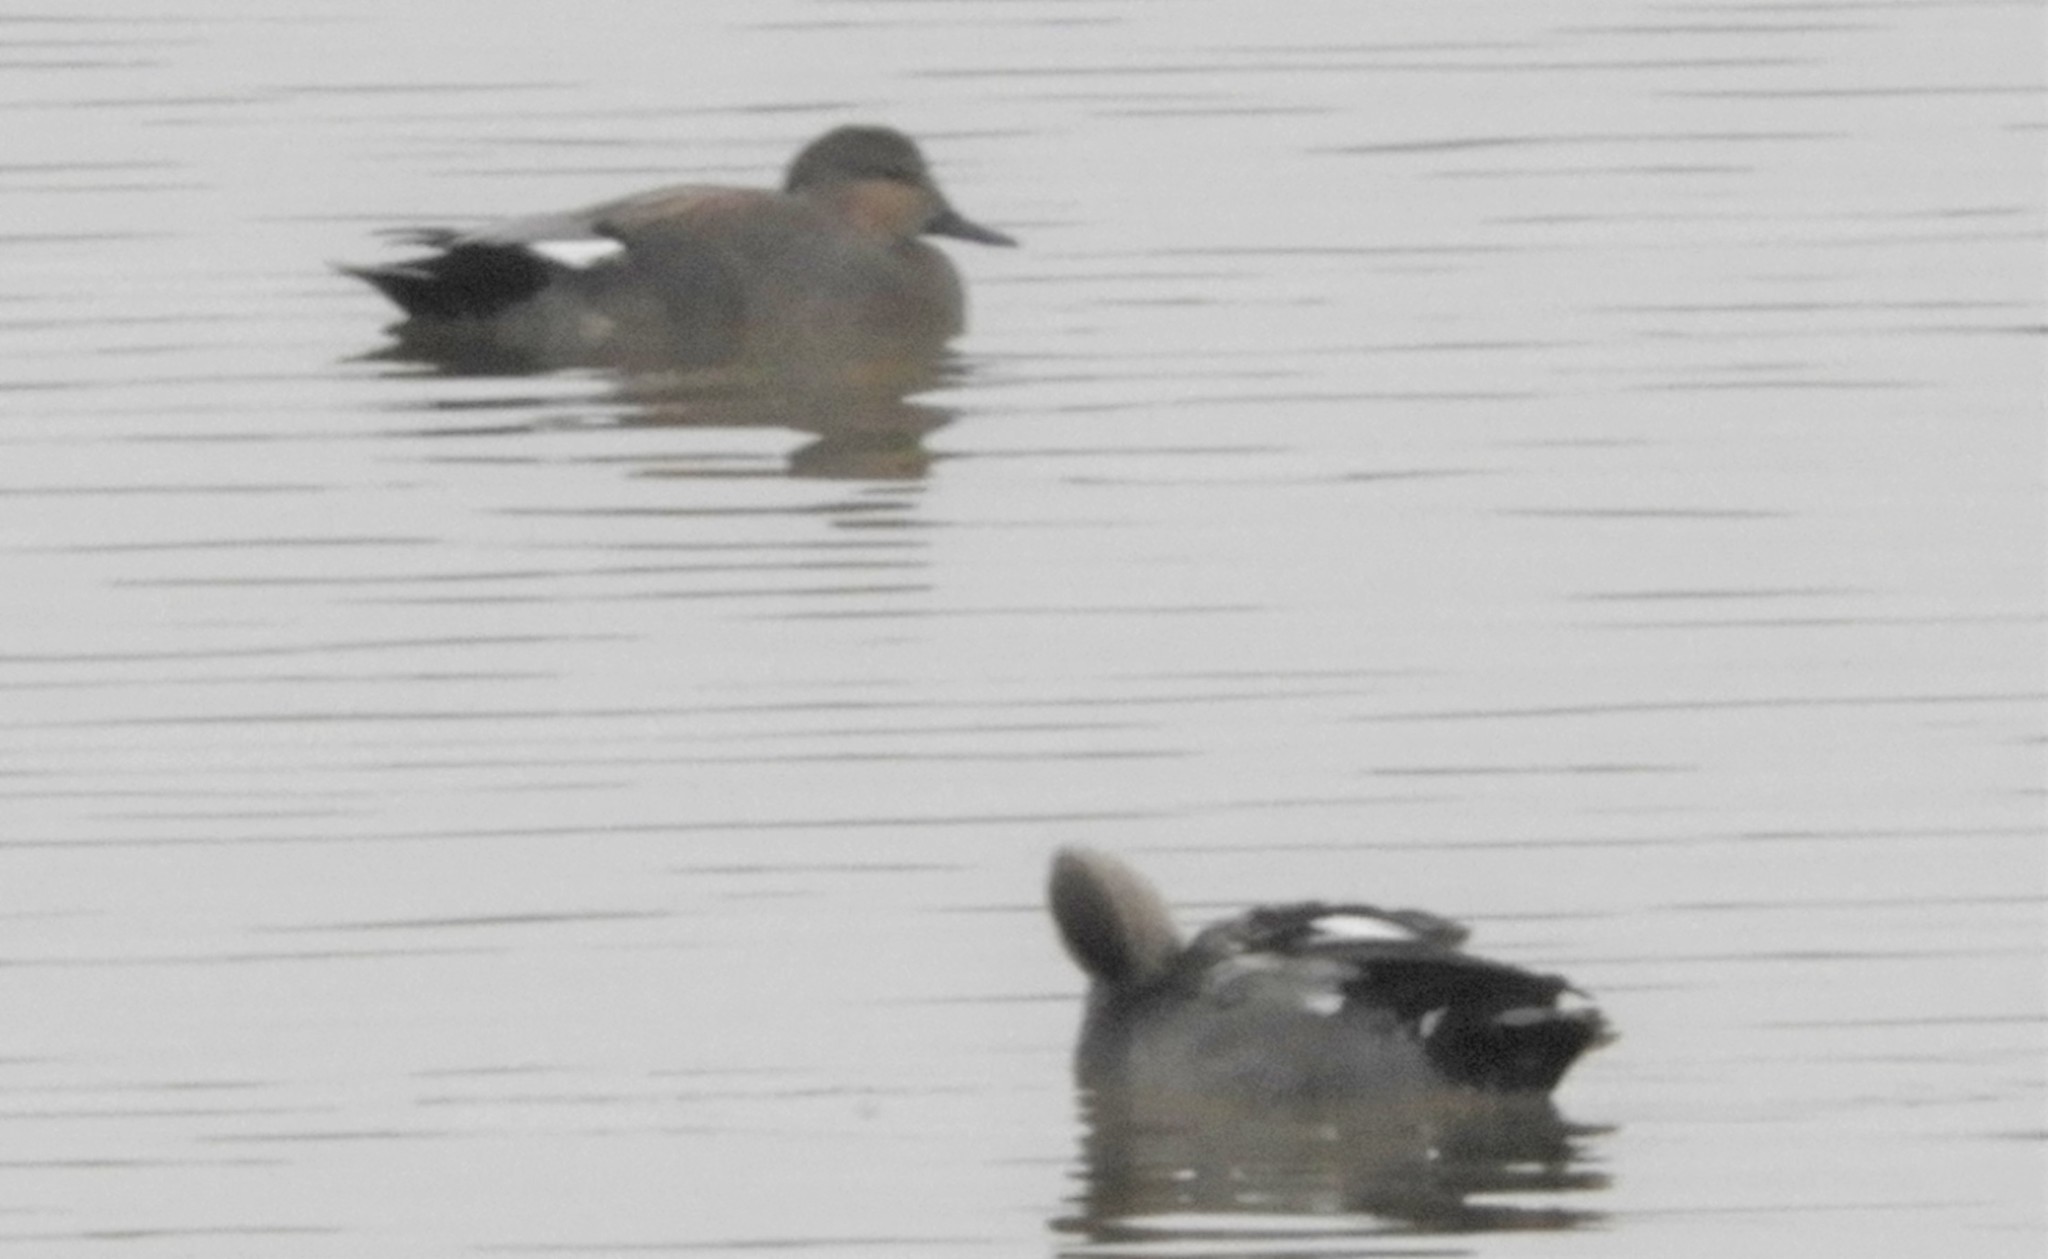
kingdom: Animalia
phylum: Chordata
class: Aves
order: Anseriformes
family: Anatidae
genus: Mareca
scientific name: Mareca strepera
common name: Gadwall
